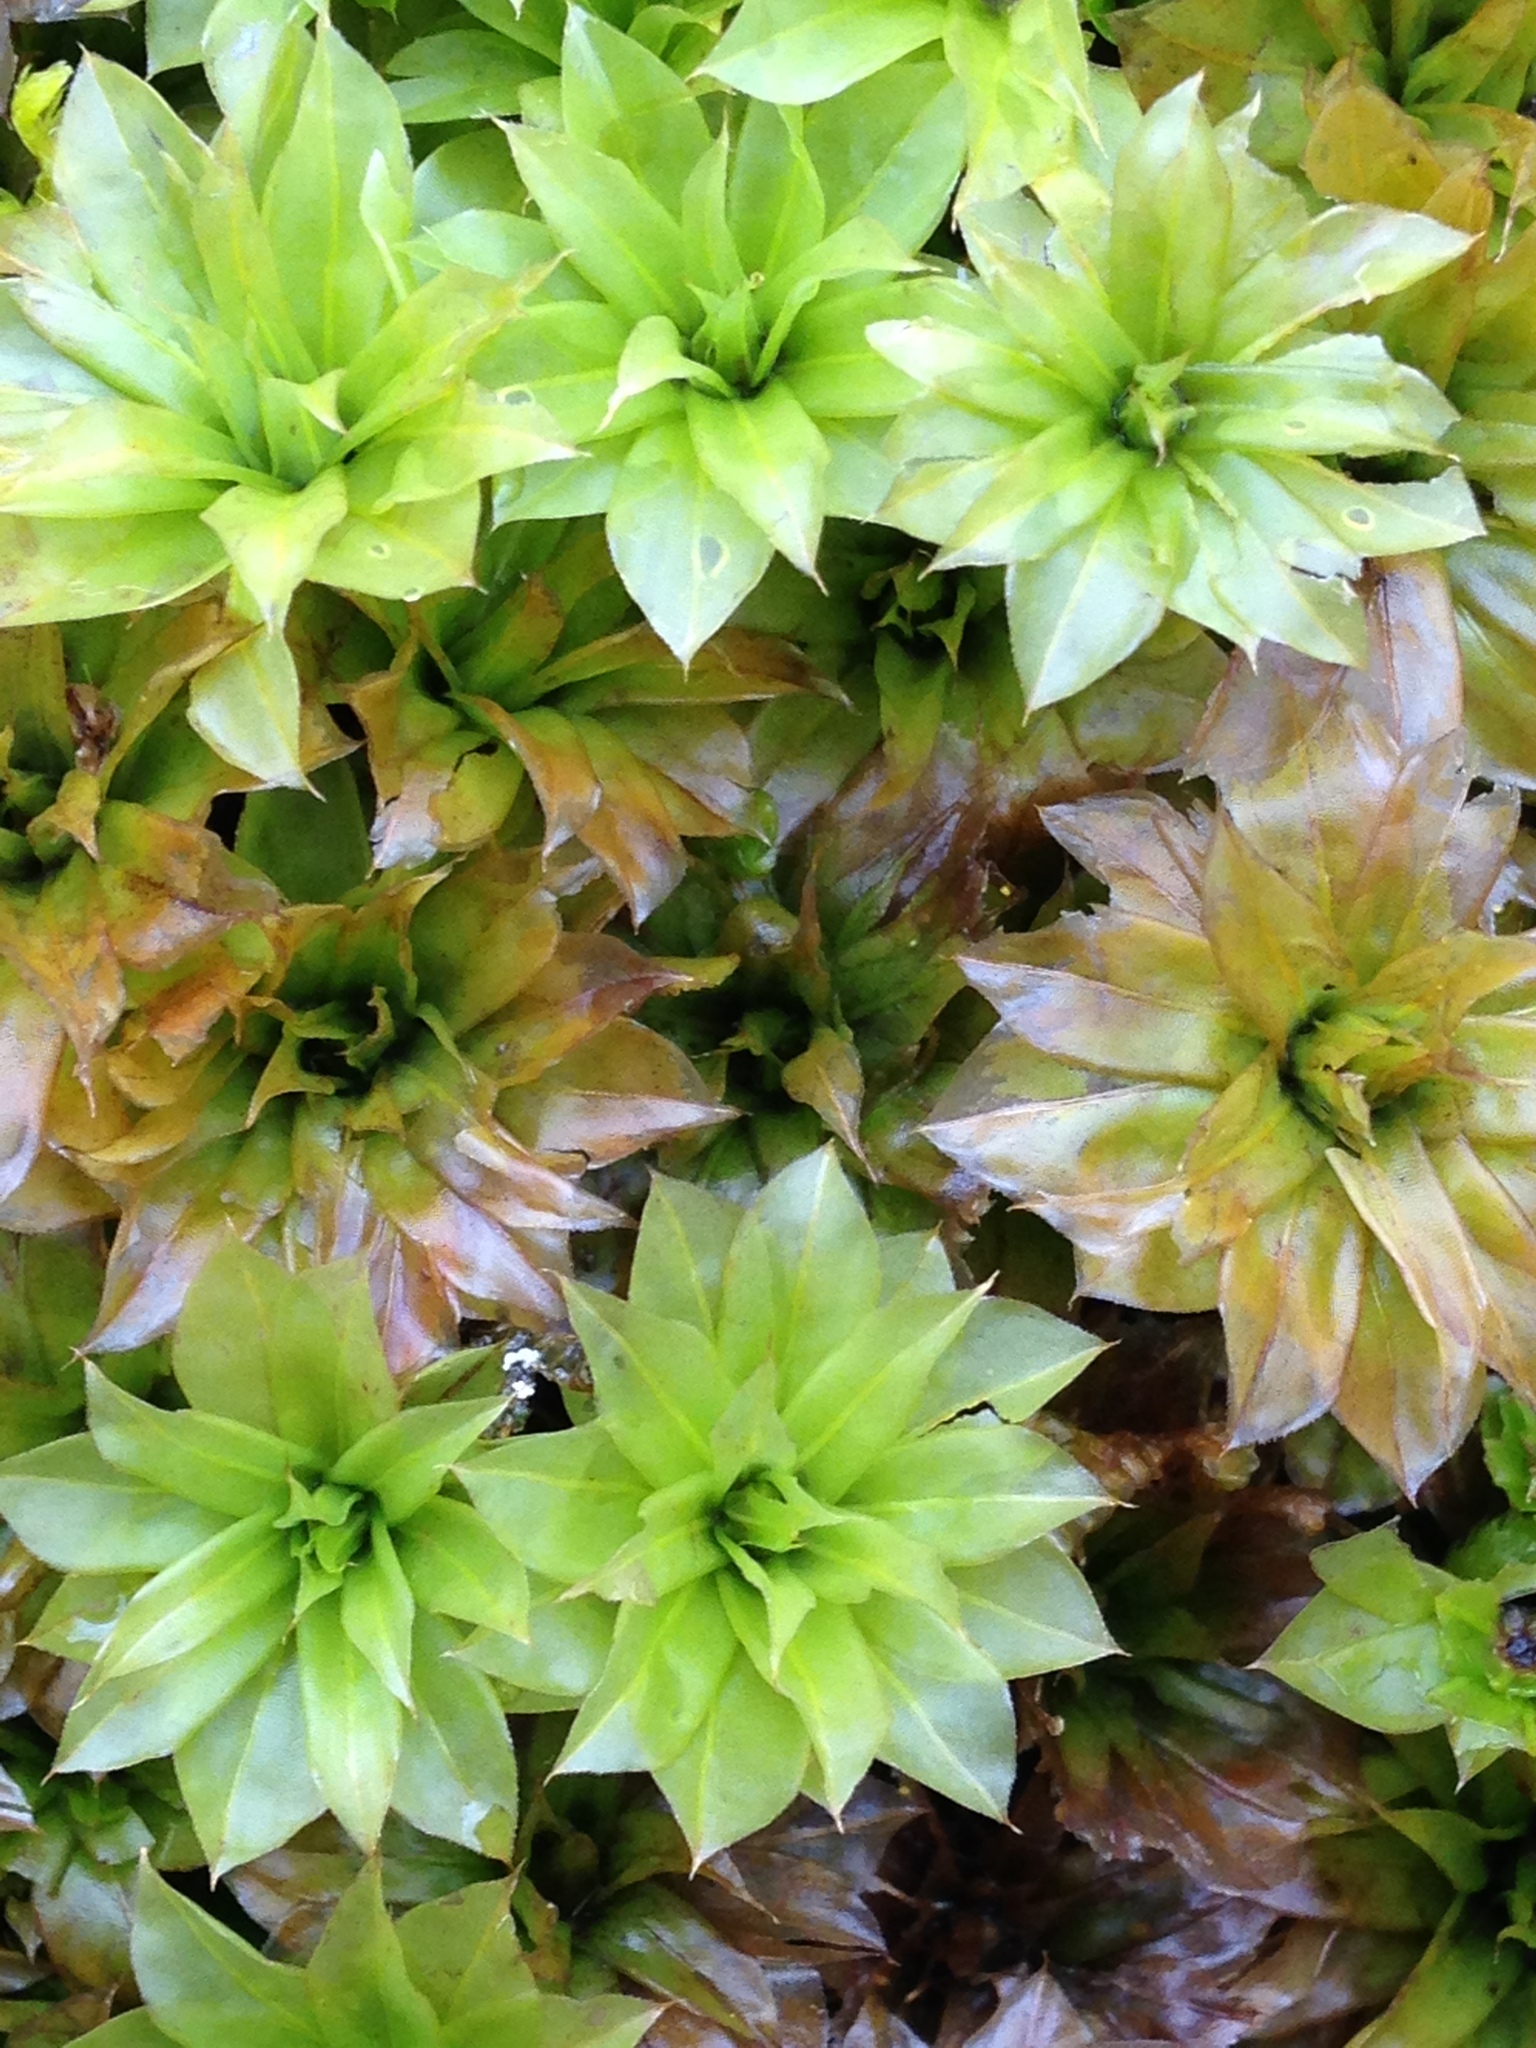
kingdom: Plantae
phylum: Bryophyta
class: Bryopsida
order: Bryales
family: Bryaceae
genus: Rhodobryum
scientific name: Rhodobryum ontariense
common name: Ontario rhodobryum moss
